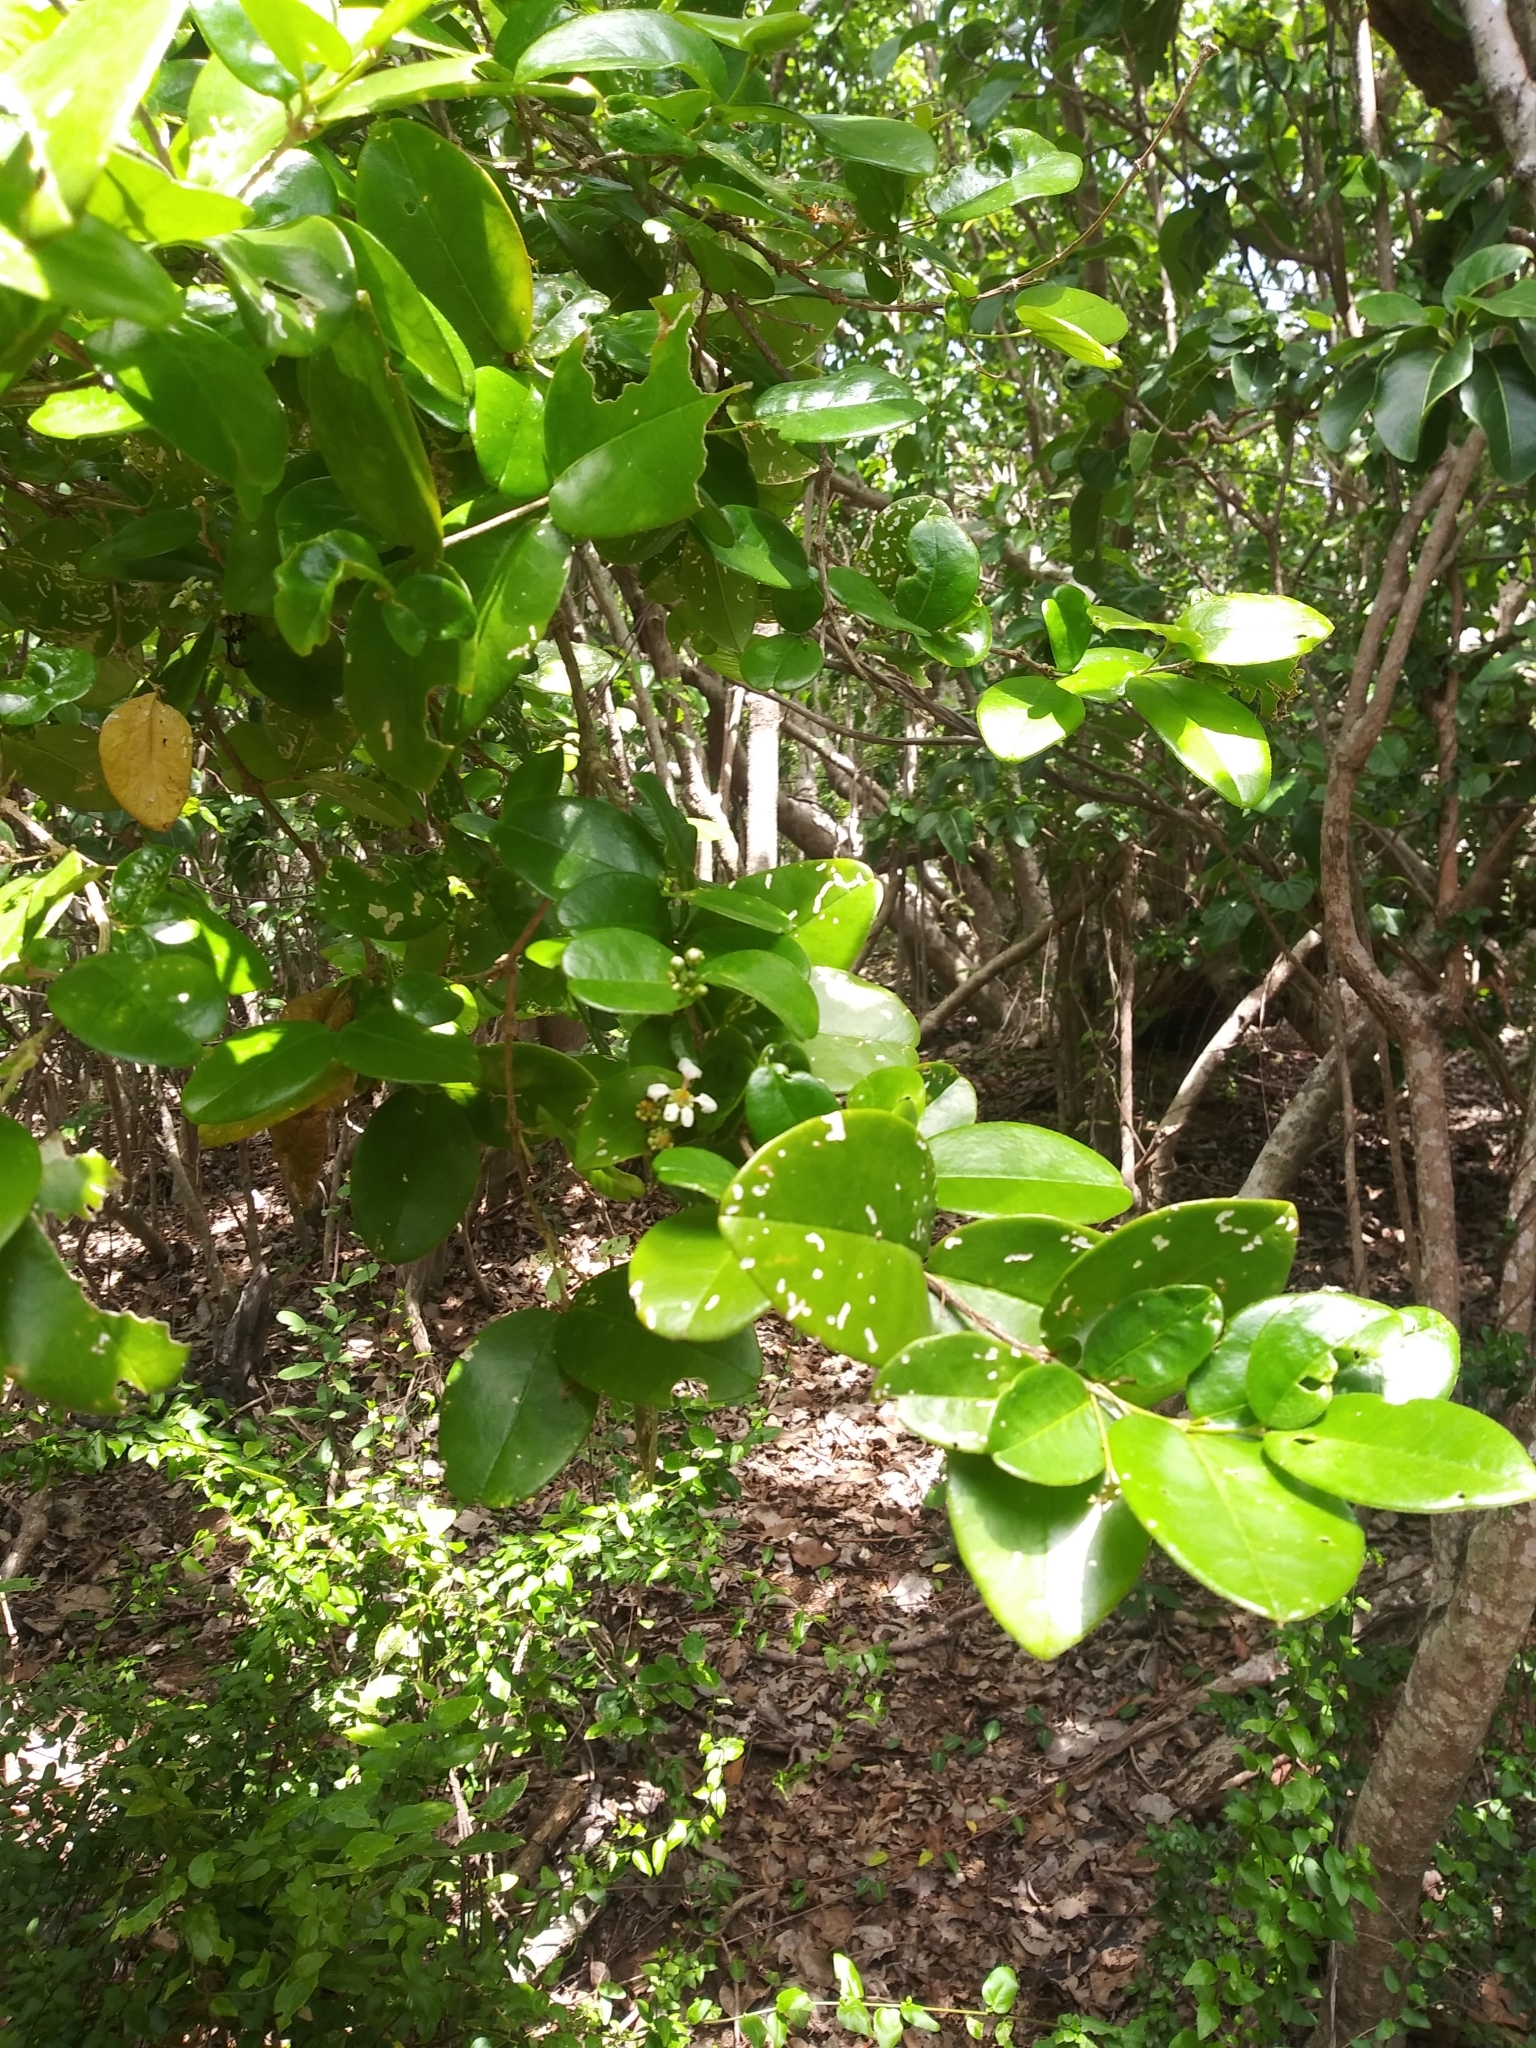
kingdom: Plantae
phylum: Tracheophyta
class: Magnoliopsida
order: Malpighiales
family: Malpighiaceae
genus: Malpighia
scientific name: Malpighia infestissima
